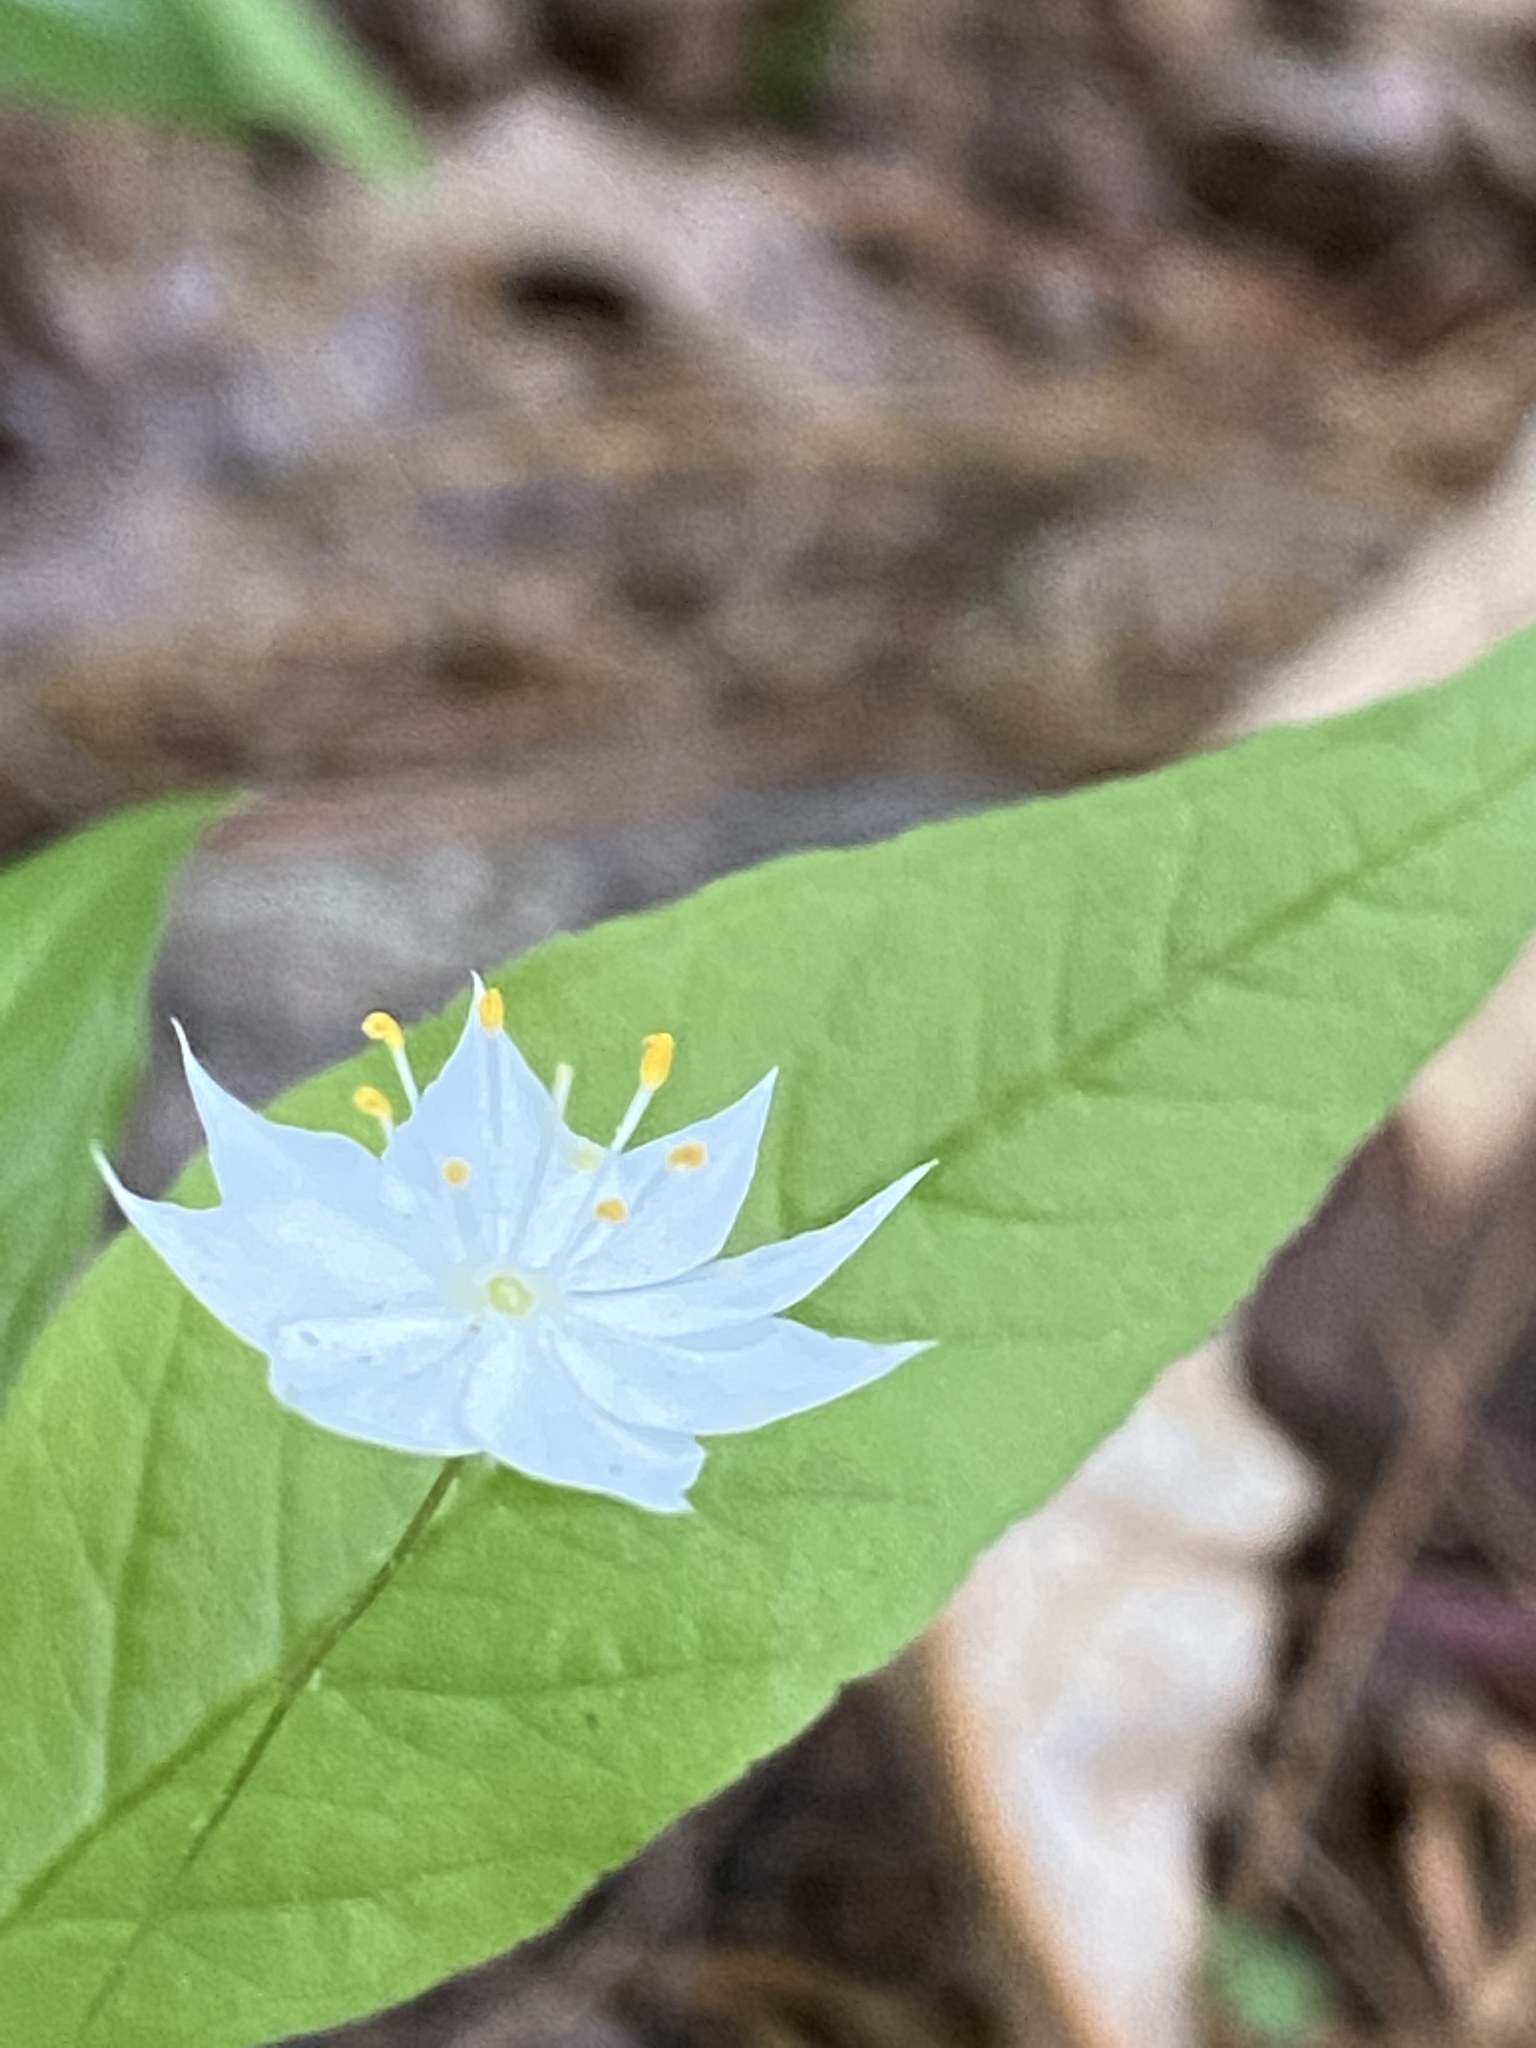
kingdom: Plantae
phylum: Tracheophyta
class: Magnoliopsida
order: Ericales
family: Primulaceae
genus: Lysimachia
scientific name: Lysimachia borealis
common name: American starflower
